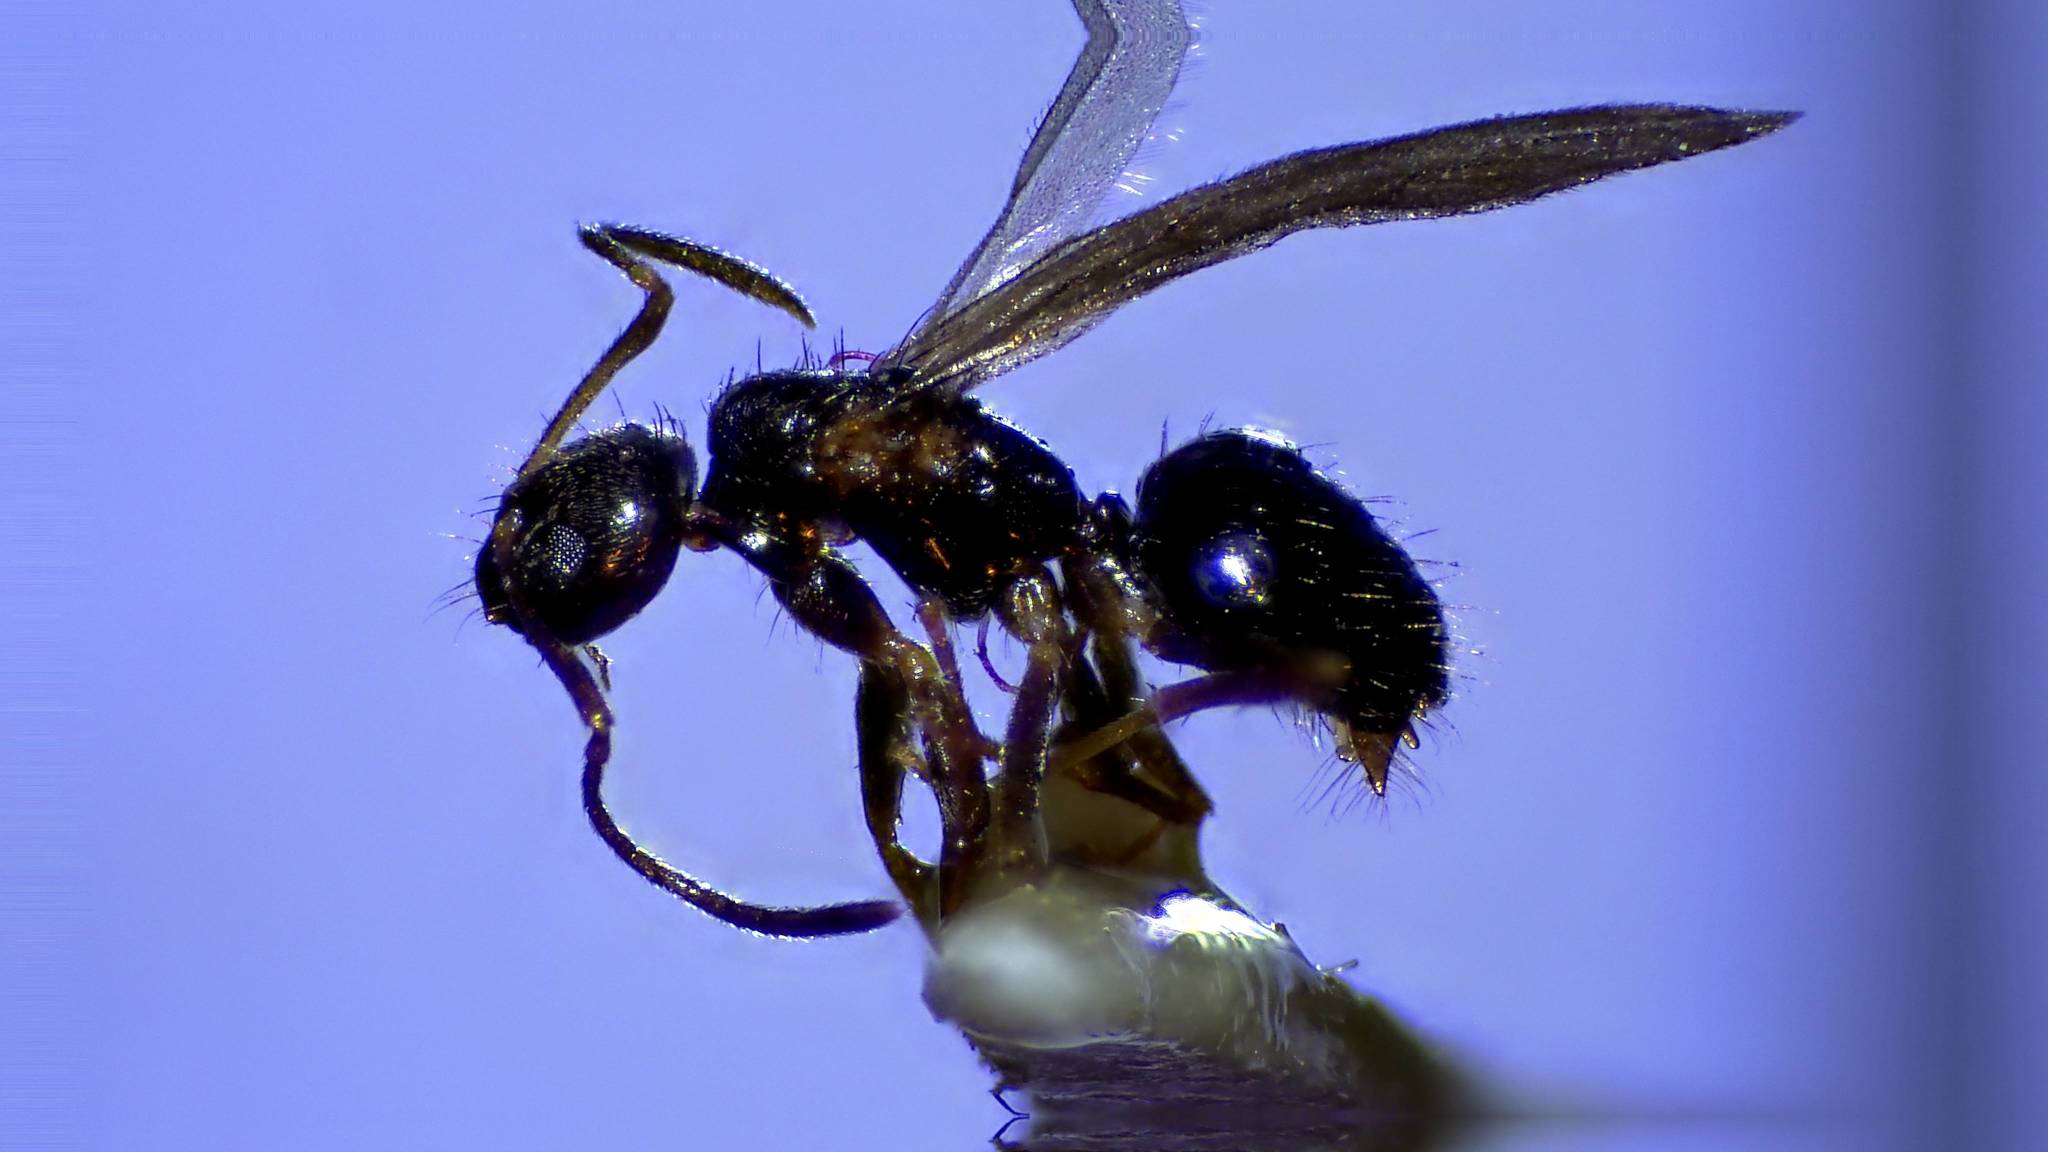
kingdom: Animalia
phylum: Arthropoda
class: Insecta
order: Hymenoptera
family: Formicidae
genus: Paratrechina
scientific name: Paratrechina flavipes
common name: Eastern asian formicine ant
